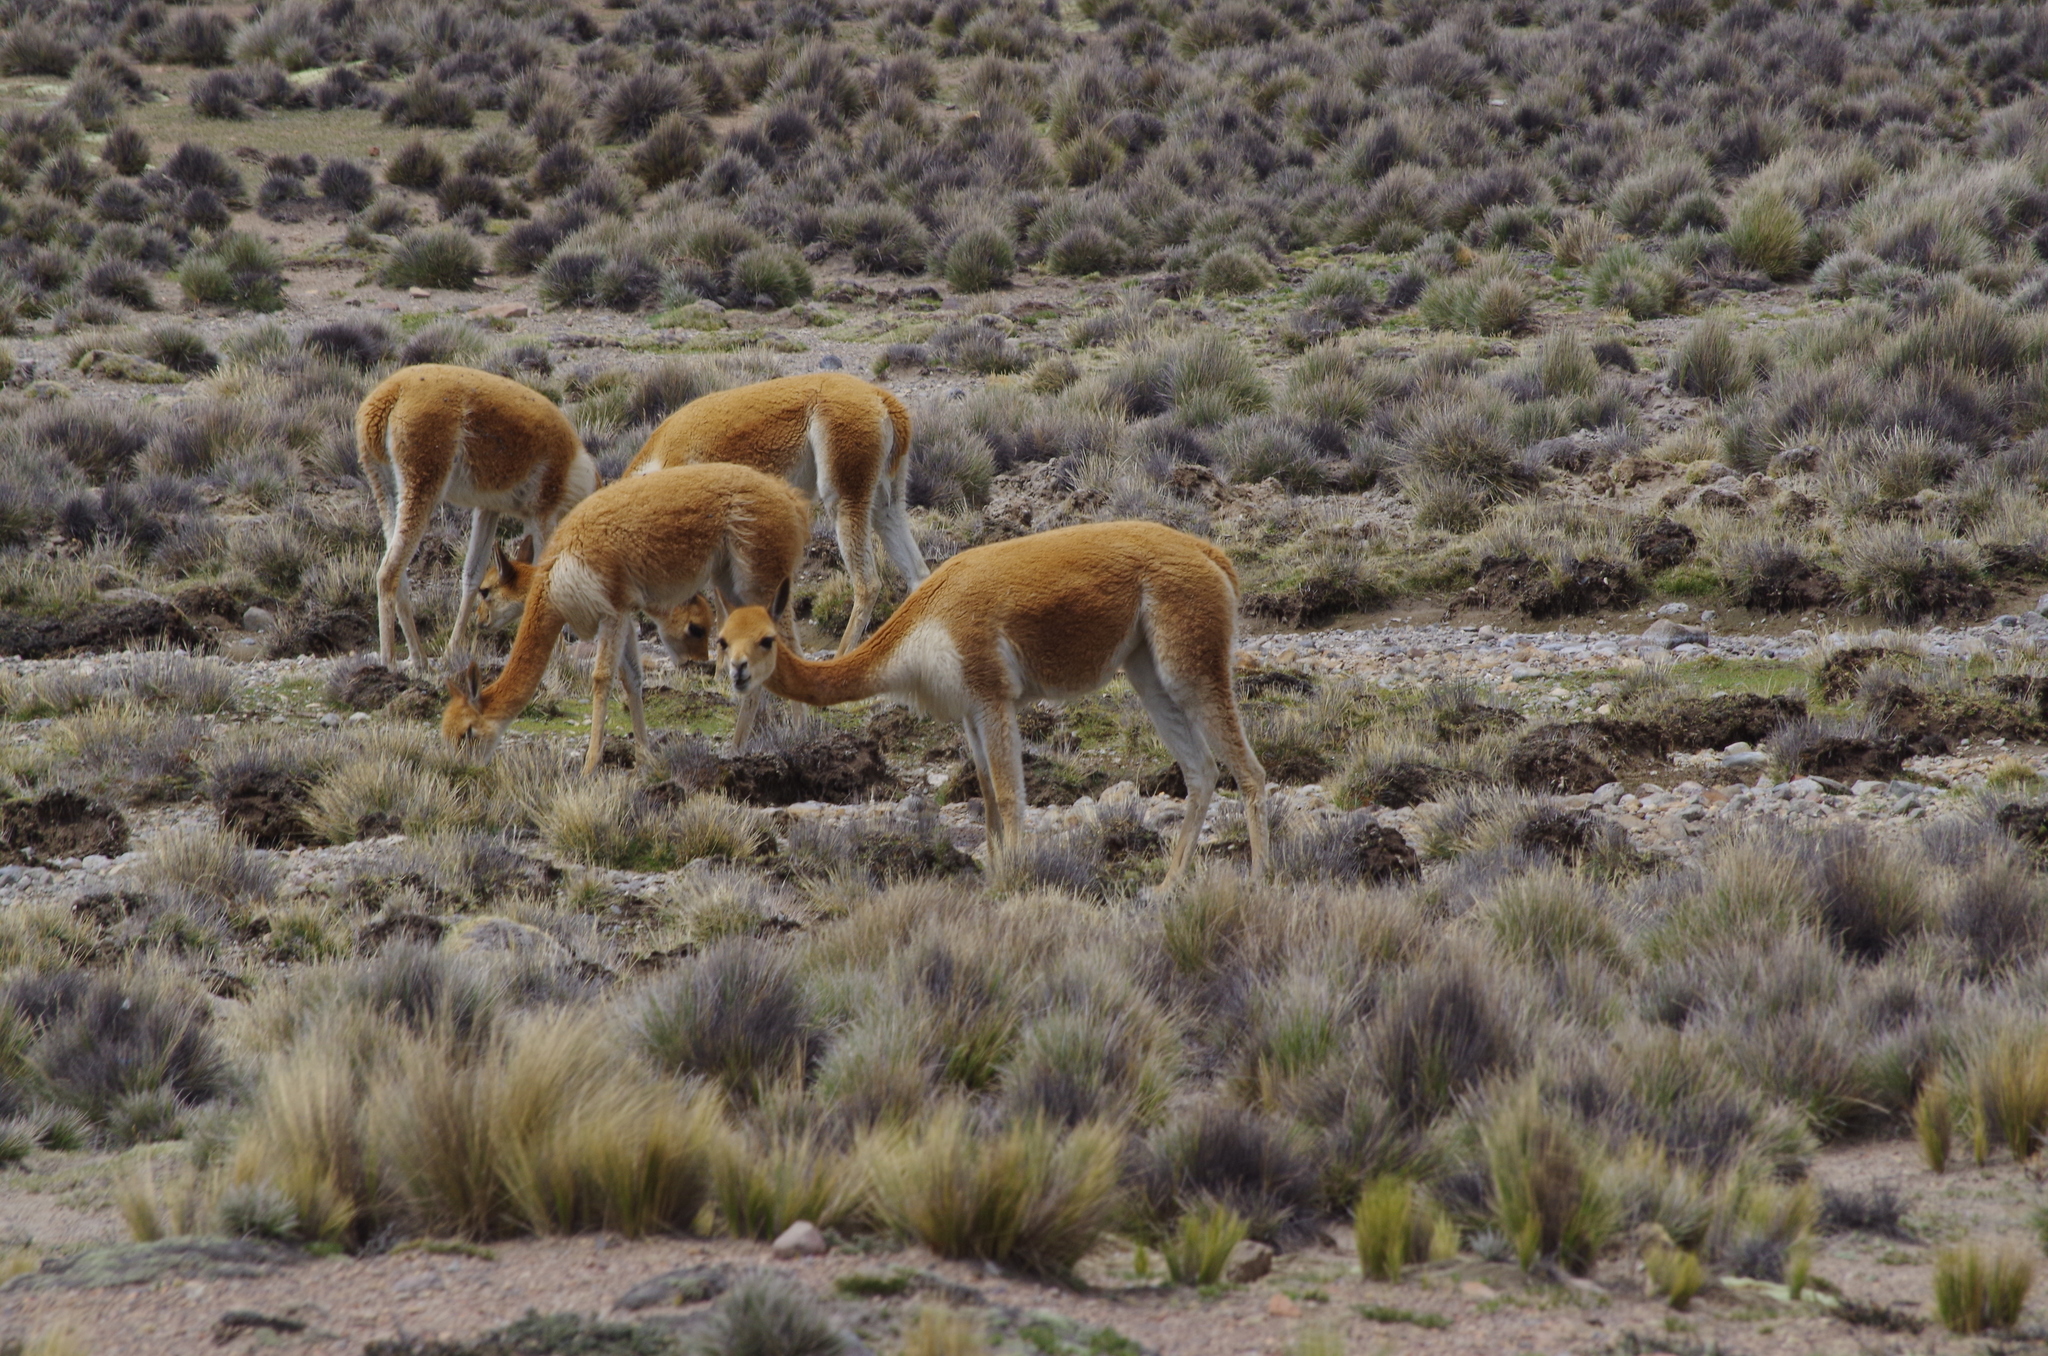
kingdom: Animalia
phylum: Chordata
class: Mammalia
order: Artiodactyla
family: Camelidae
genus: Vicugna
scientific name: Vicugna vicugna
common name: Vicugna
